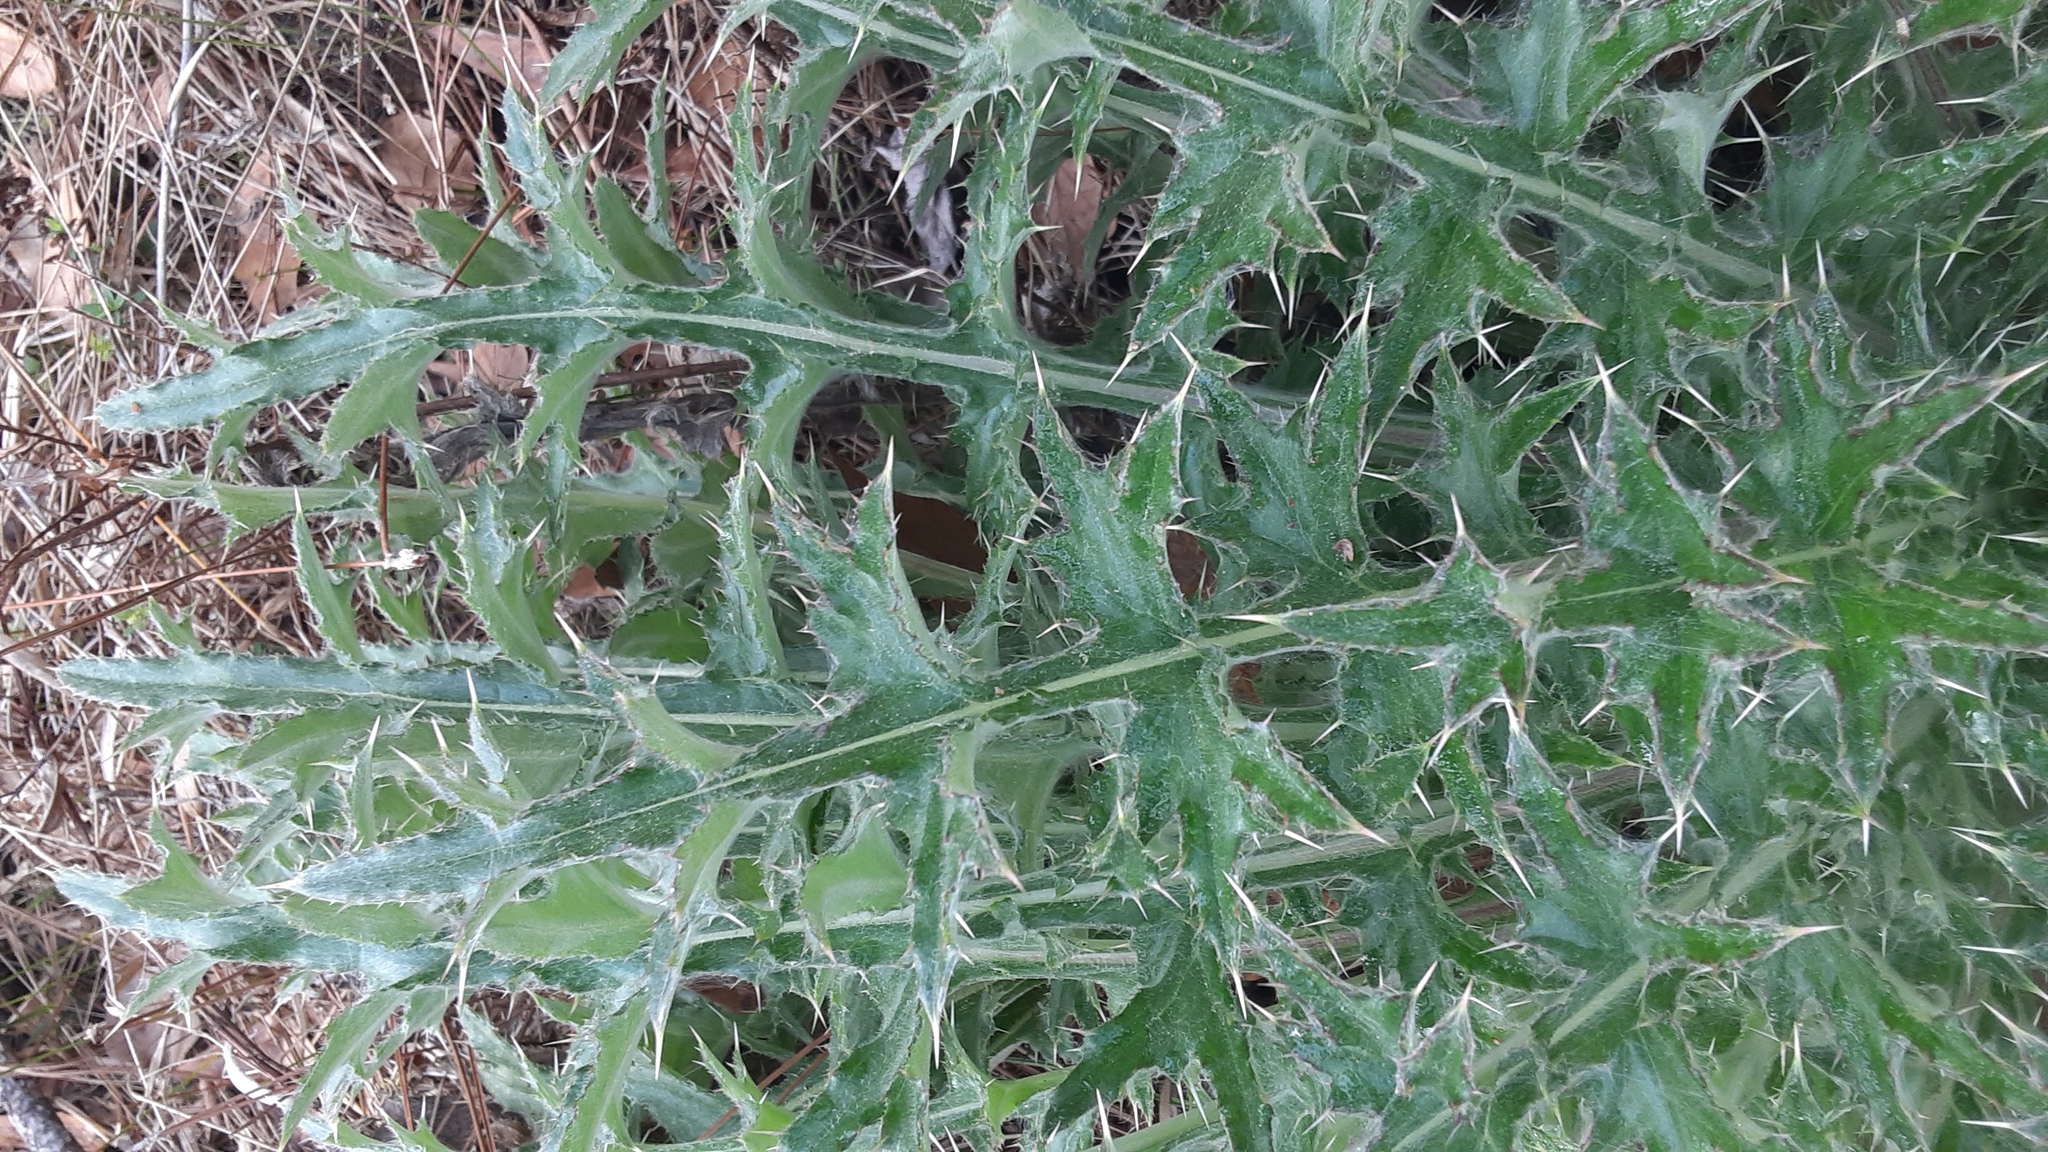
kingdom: Plantae
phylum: Tracheophyta
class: Magnoliopsida
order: Asterales
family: Asteraceae
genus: Cirsium
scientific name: Cirsium horridulum
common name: Bristly thistle
